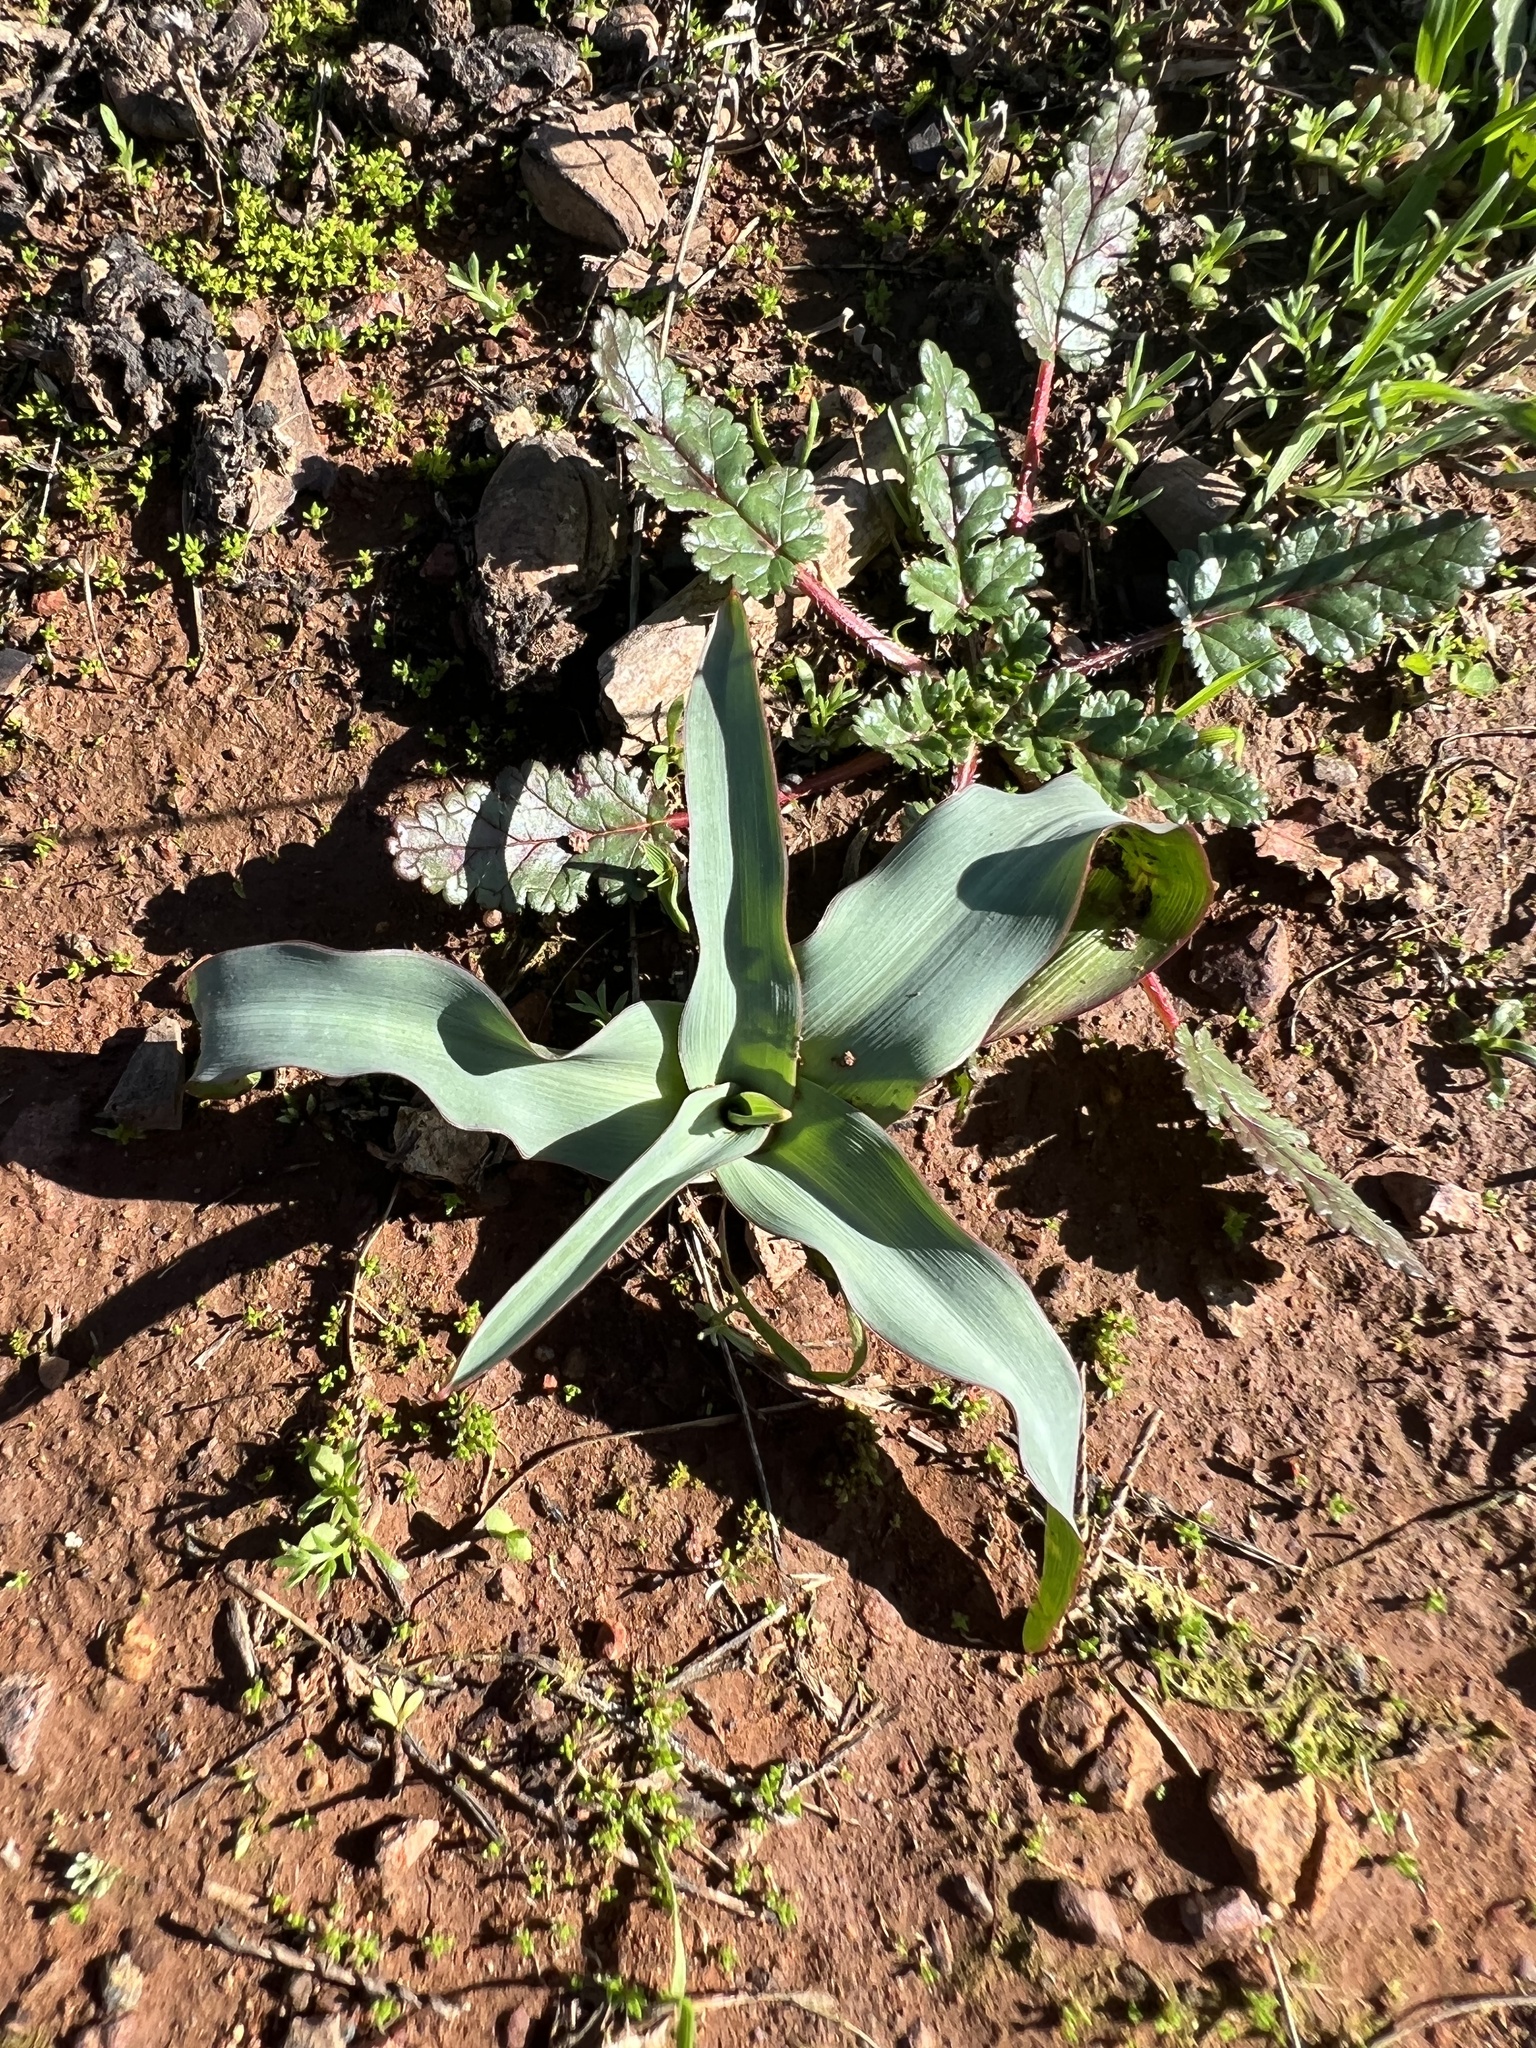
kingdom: Plantae
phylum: Tracheophyta
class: Liliopsida
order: Asparagales
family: Asparagaceae
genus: Chlorogalum
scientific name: Chlorogalum pomeridianum
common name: Amole
